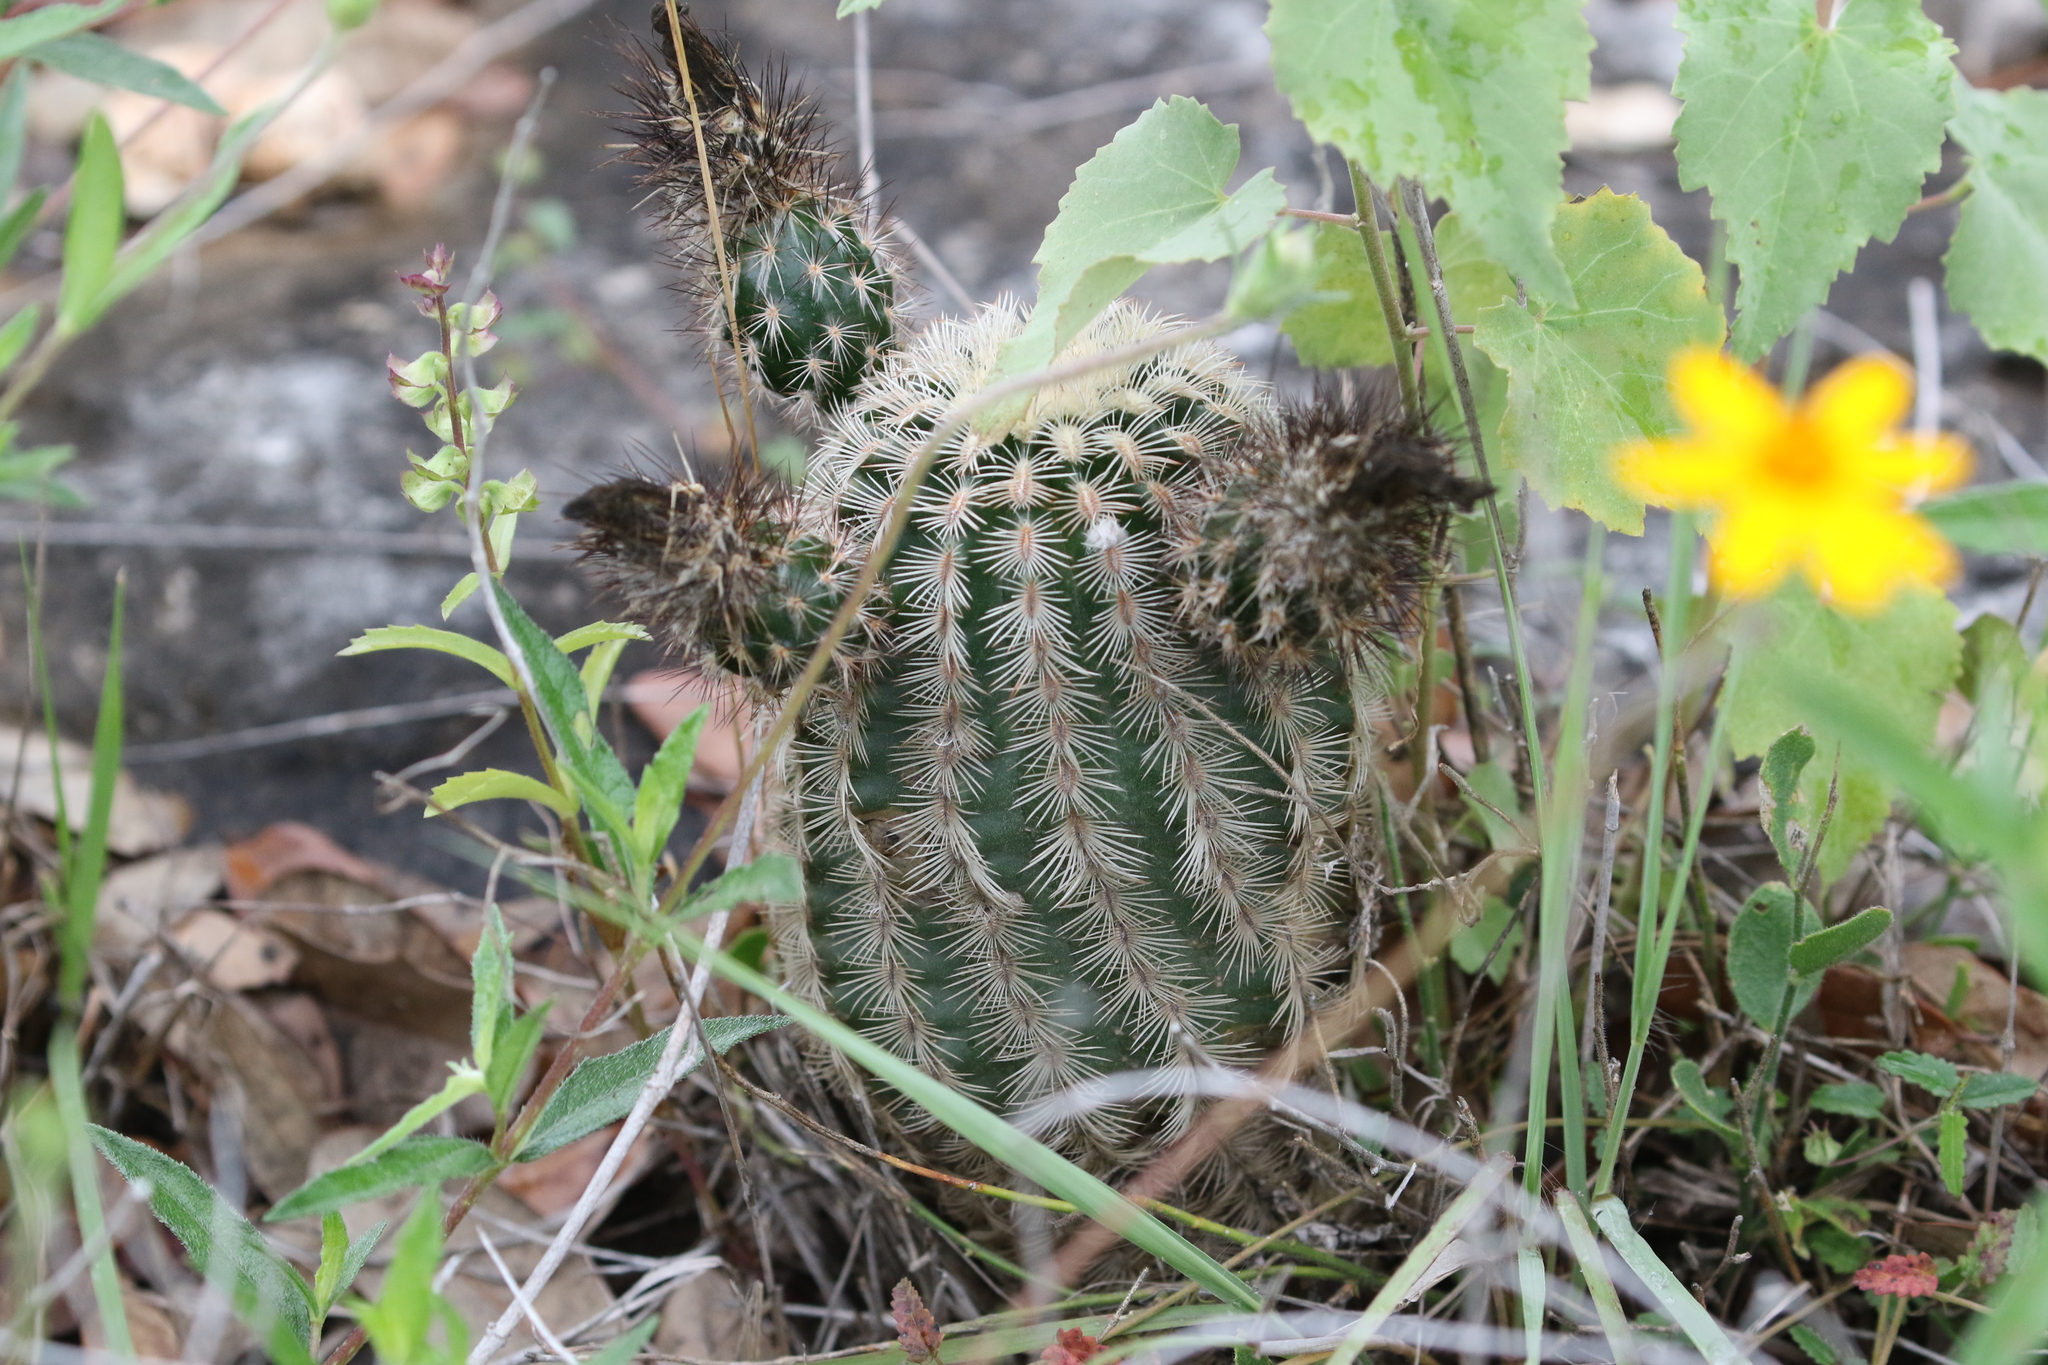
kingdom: Plantae
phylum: Tracheophyta
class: Magnoliopsida
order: Caryophyllales
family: Cactaceae
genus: Echinocereus
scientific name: Echinocereus reichenbachii
